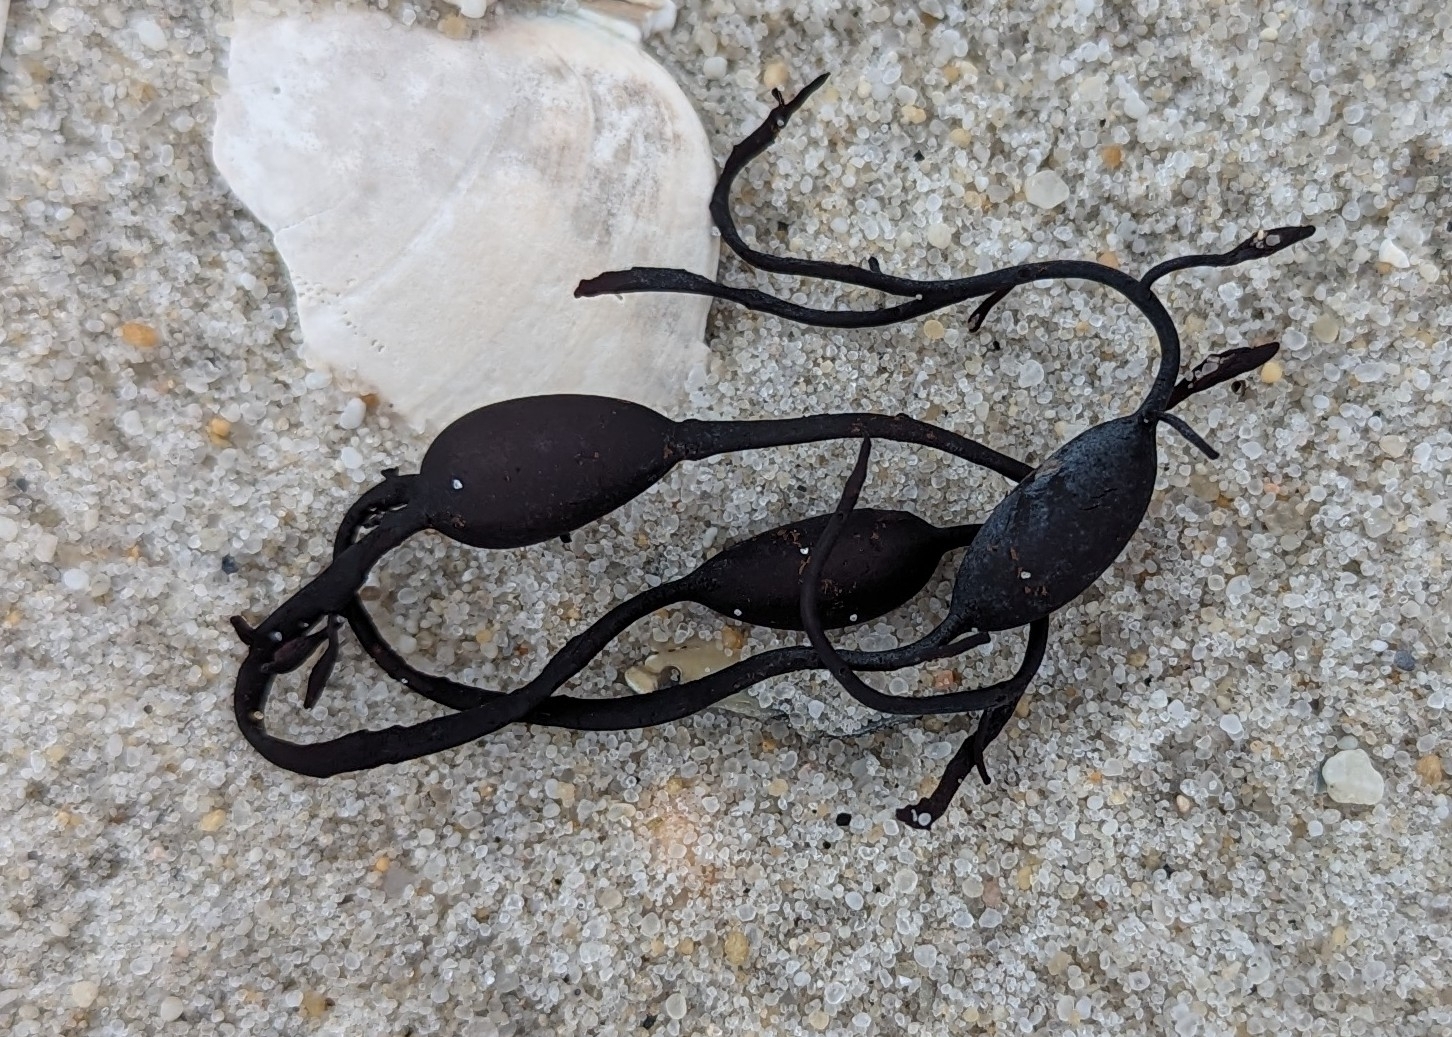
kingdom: Chromista
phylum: Ochrophyta
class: Phaeophyceae
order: Fucales
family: Fucaceae
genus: Ascophyllum
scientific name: Ascophyllum nodosum
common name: Knotted wrack
